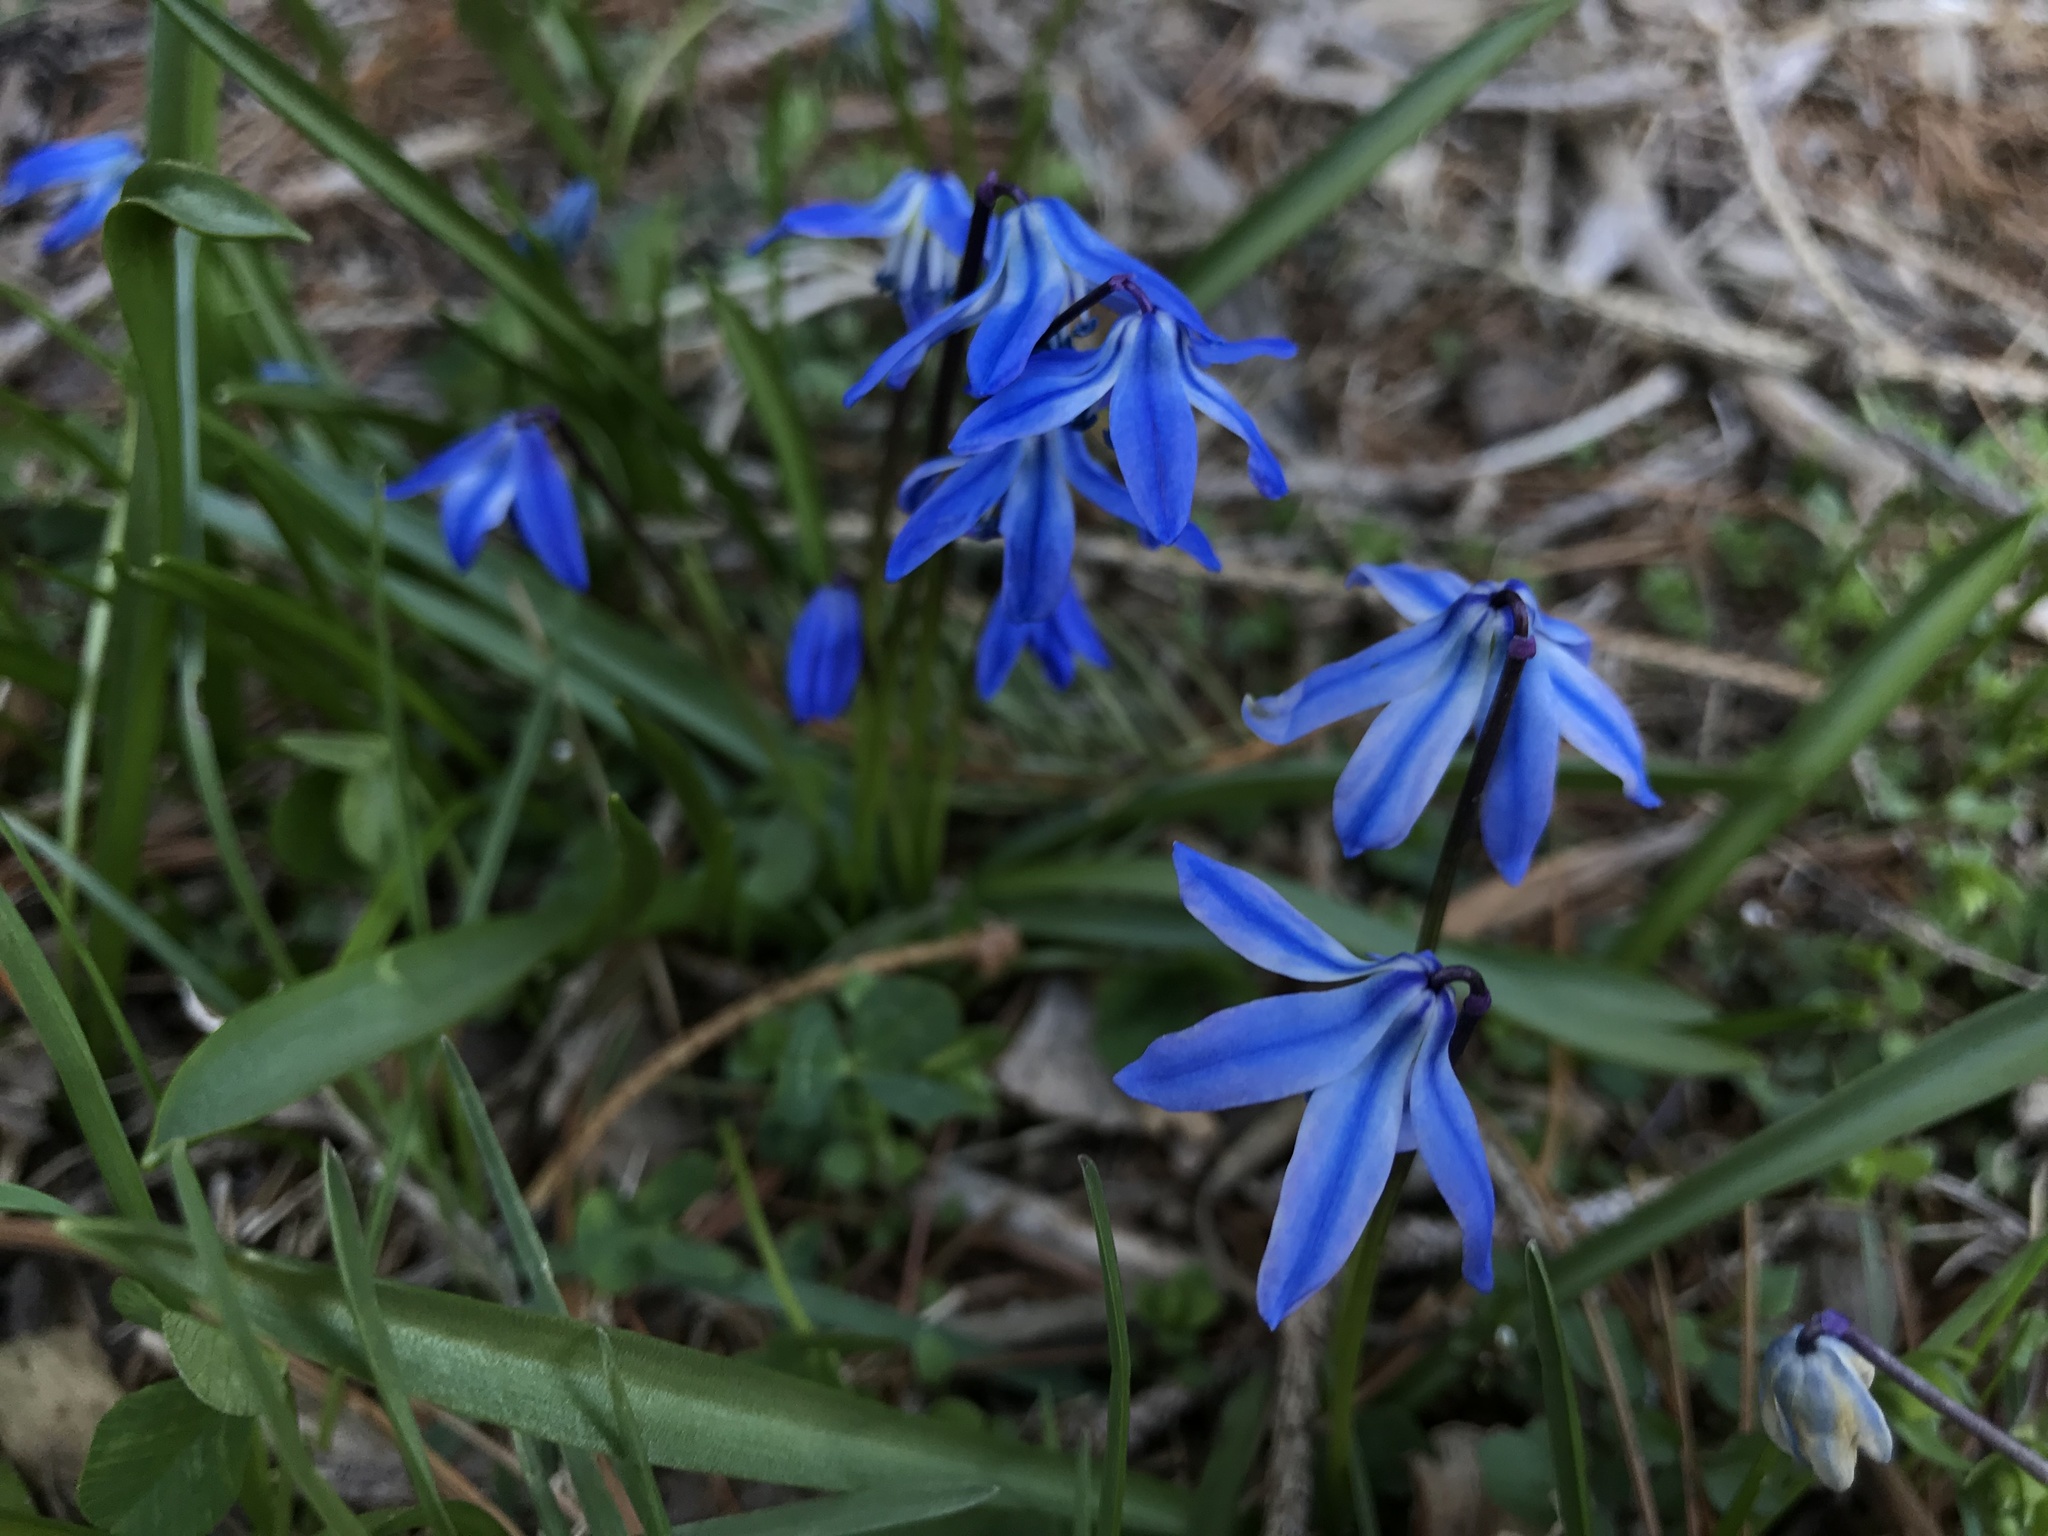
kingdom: Plantae
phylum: Tracheophyta
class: Liliopsida
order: Asparagales
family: Asparagaceae
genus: Scilla
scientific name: Scilla siberica
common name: Siberian squill
